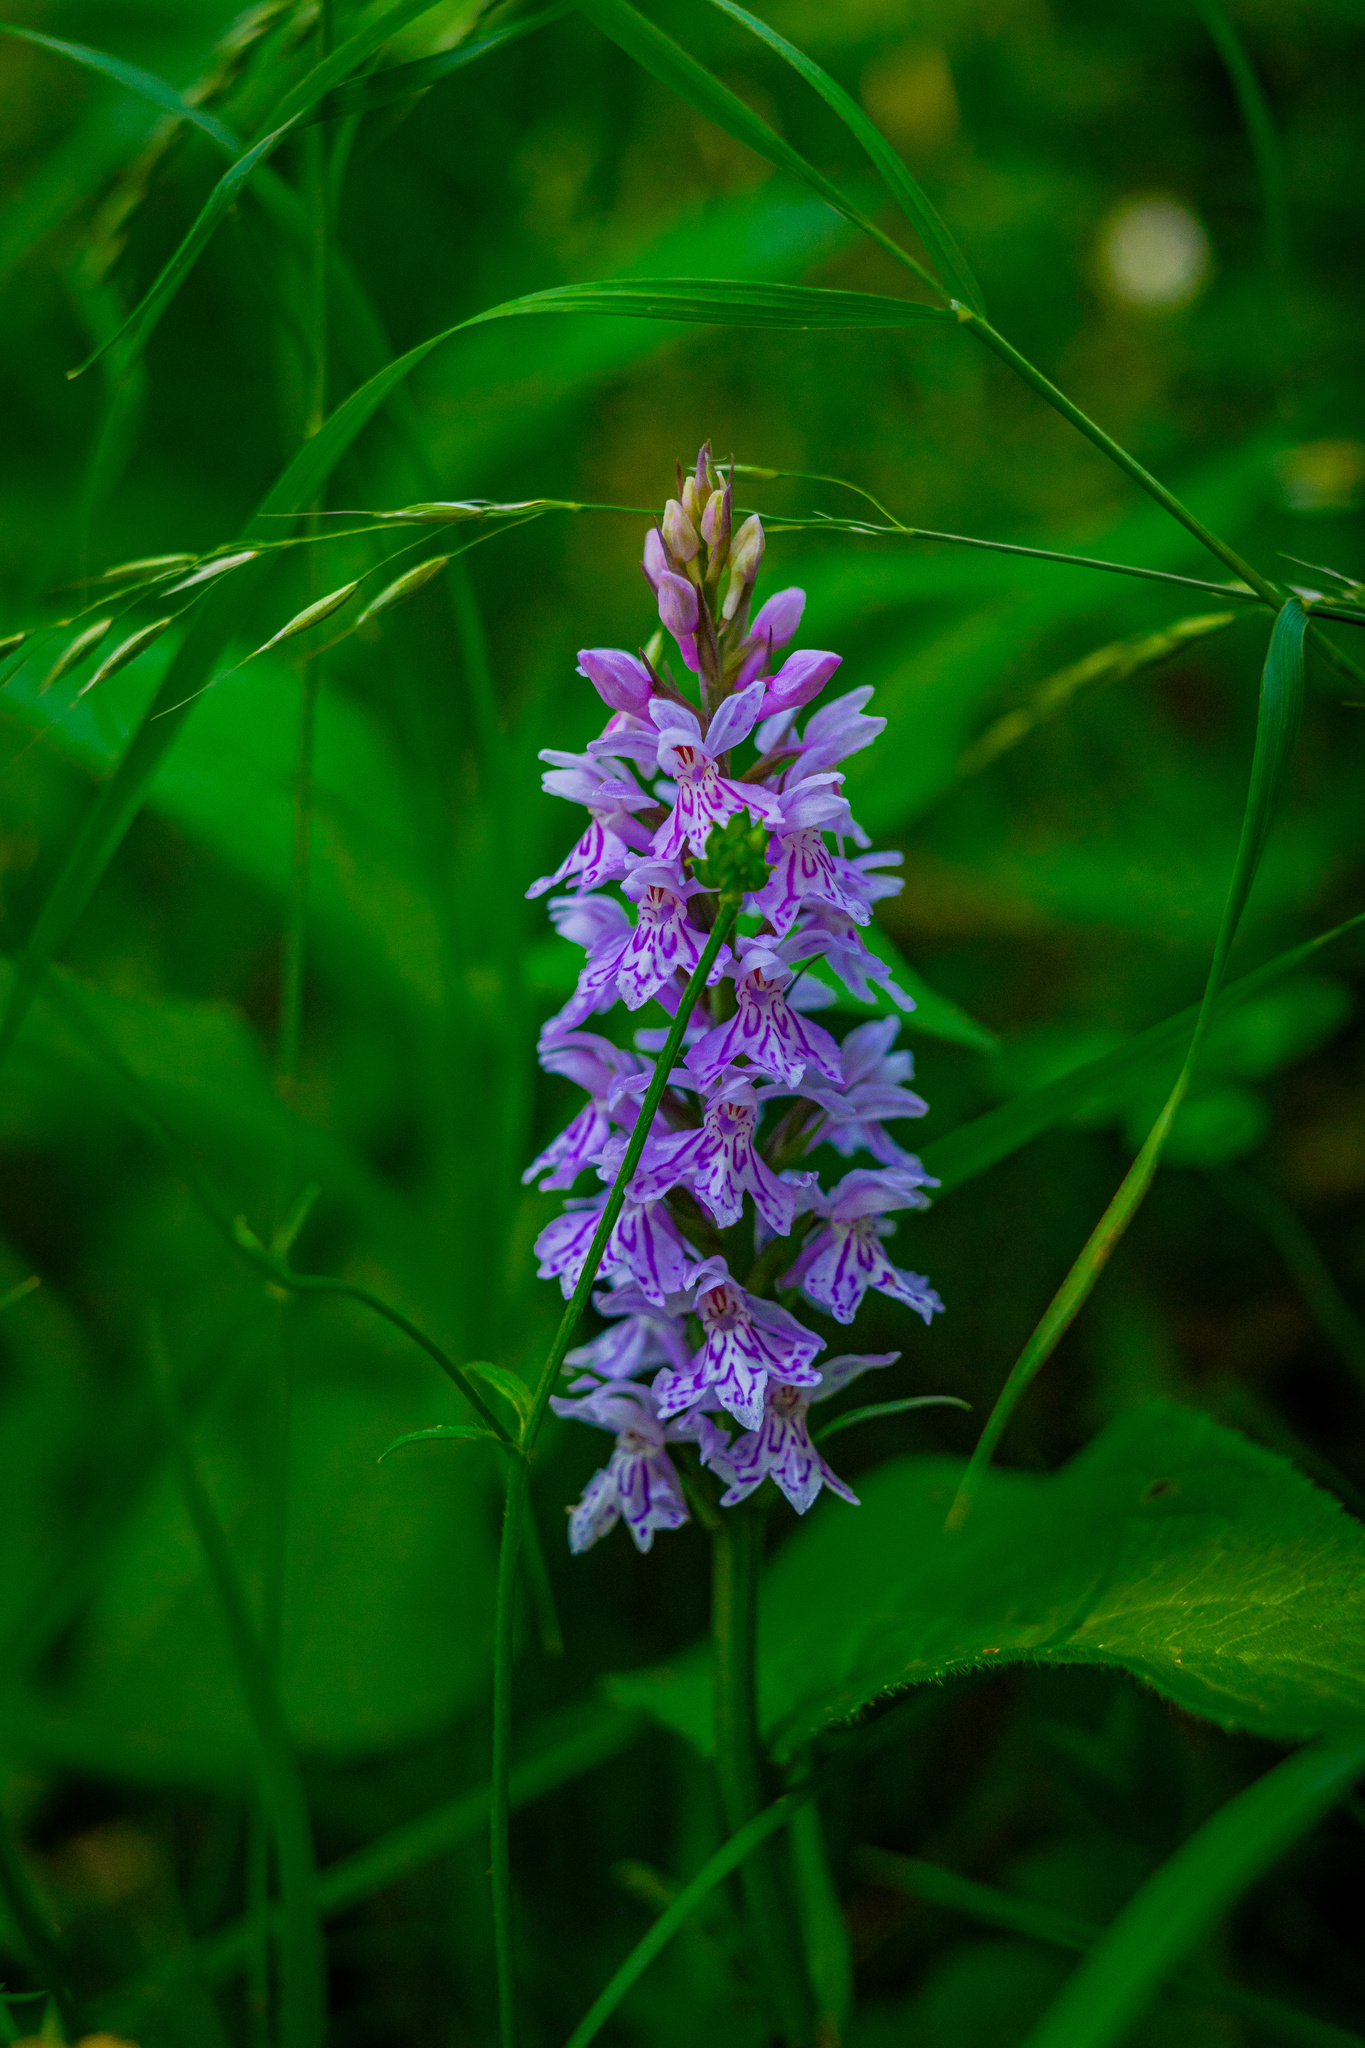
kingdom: Plantae
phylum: Tracheophyta
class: Liliopsida
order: Asparagales
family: Orchidaceae
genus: Dactylorhiza
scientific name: Dactylorhiza maculata
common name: Heath spotted-orchid
